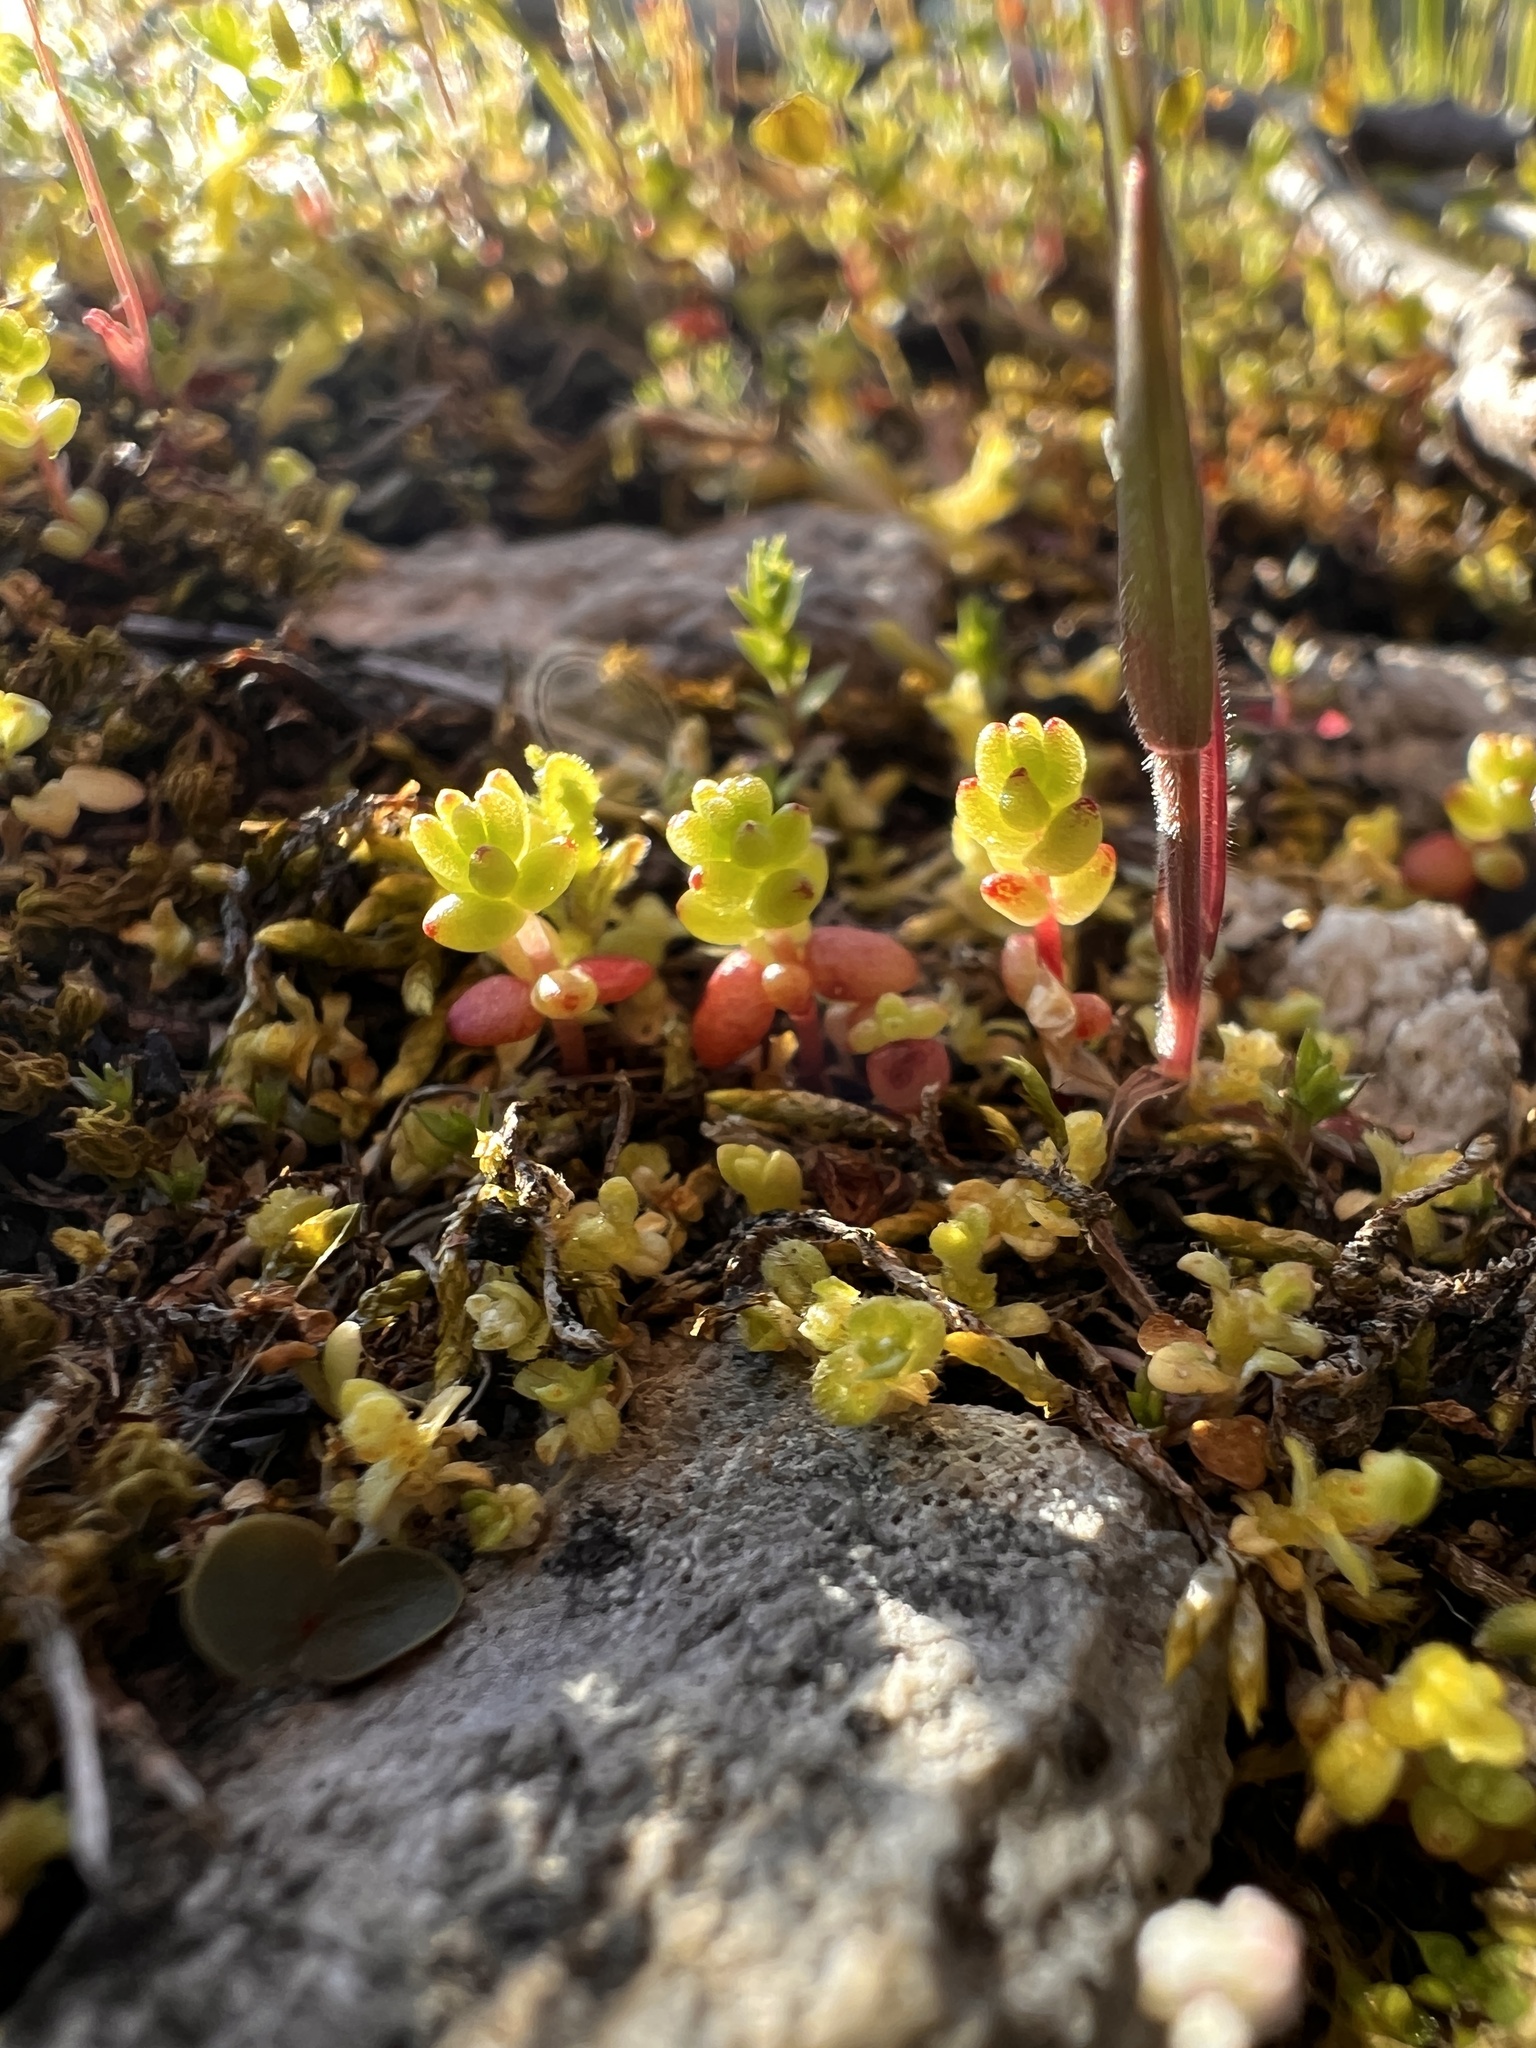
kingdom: Plantae
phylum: Tracheophyta
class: Magnoliopsida
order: Saxifragales
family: Crassulaceae
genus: Sedum
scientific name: Sedum pulchellum
